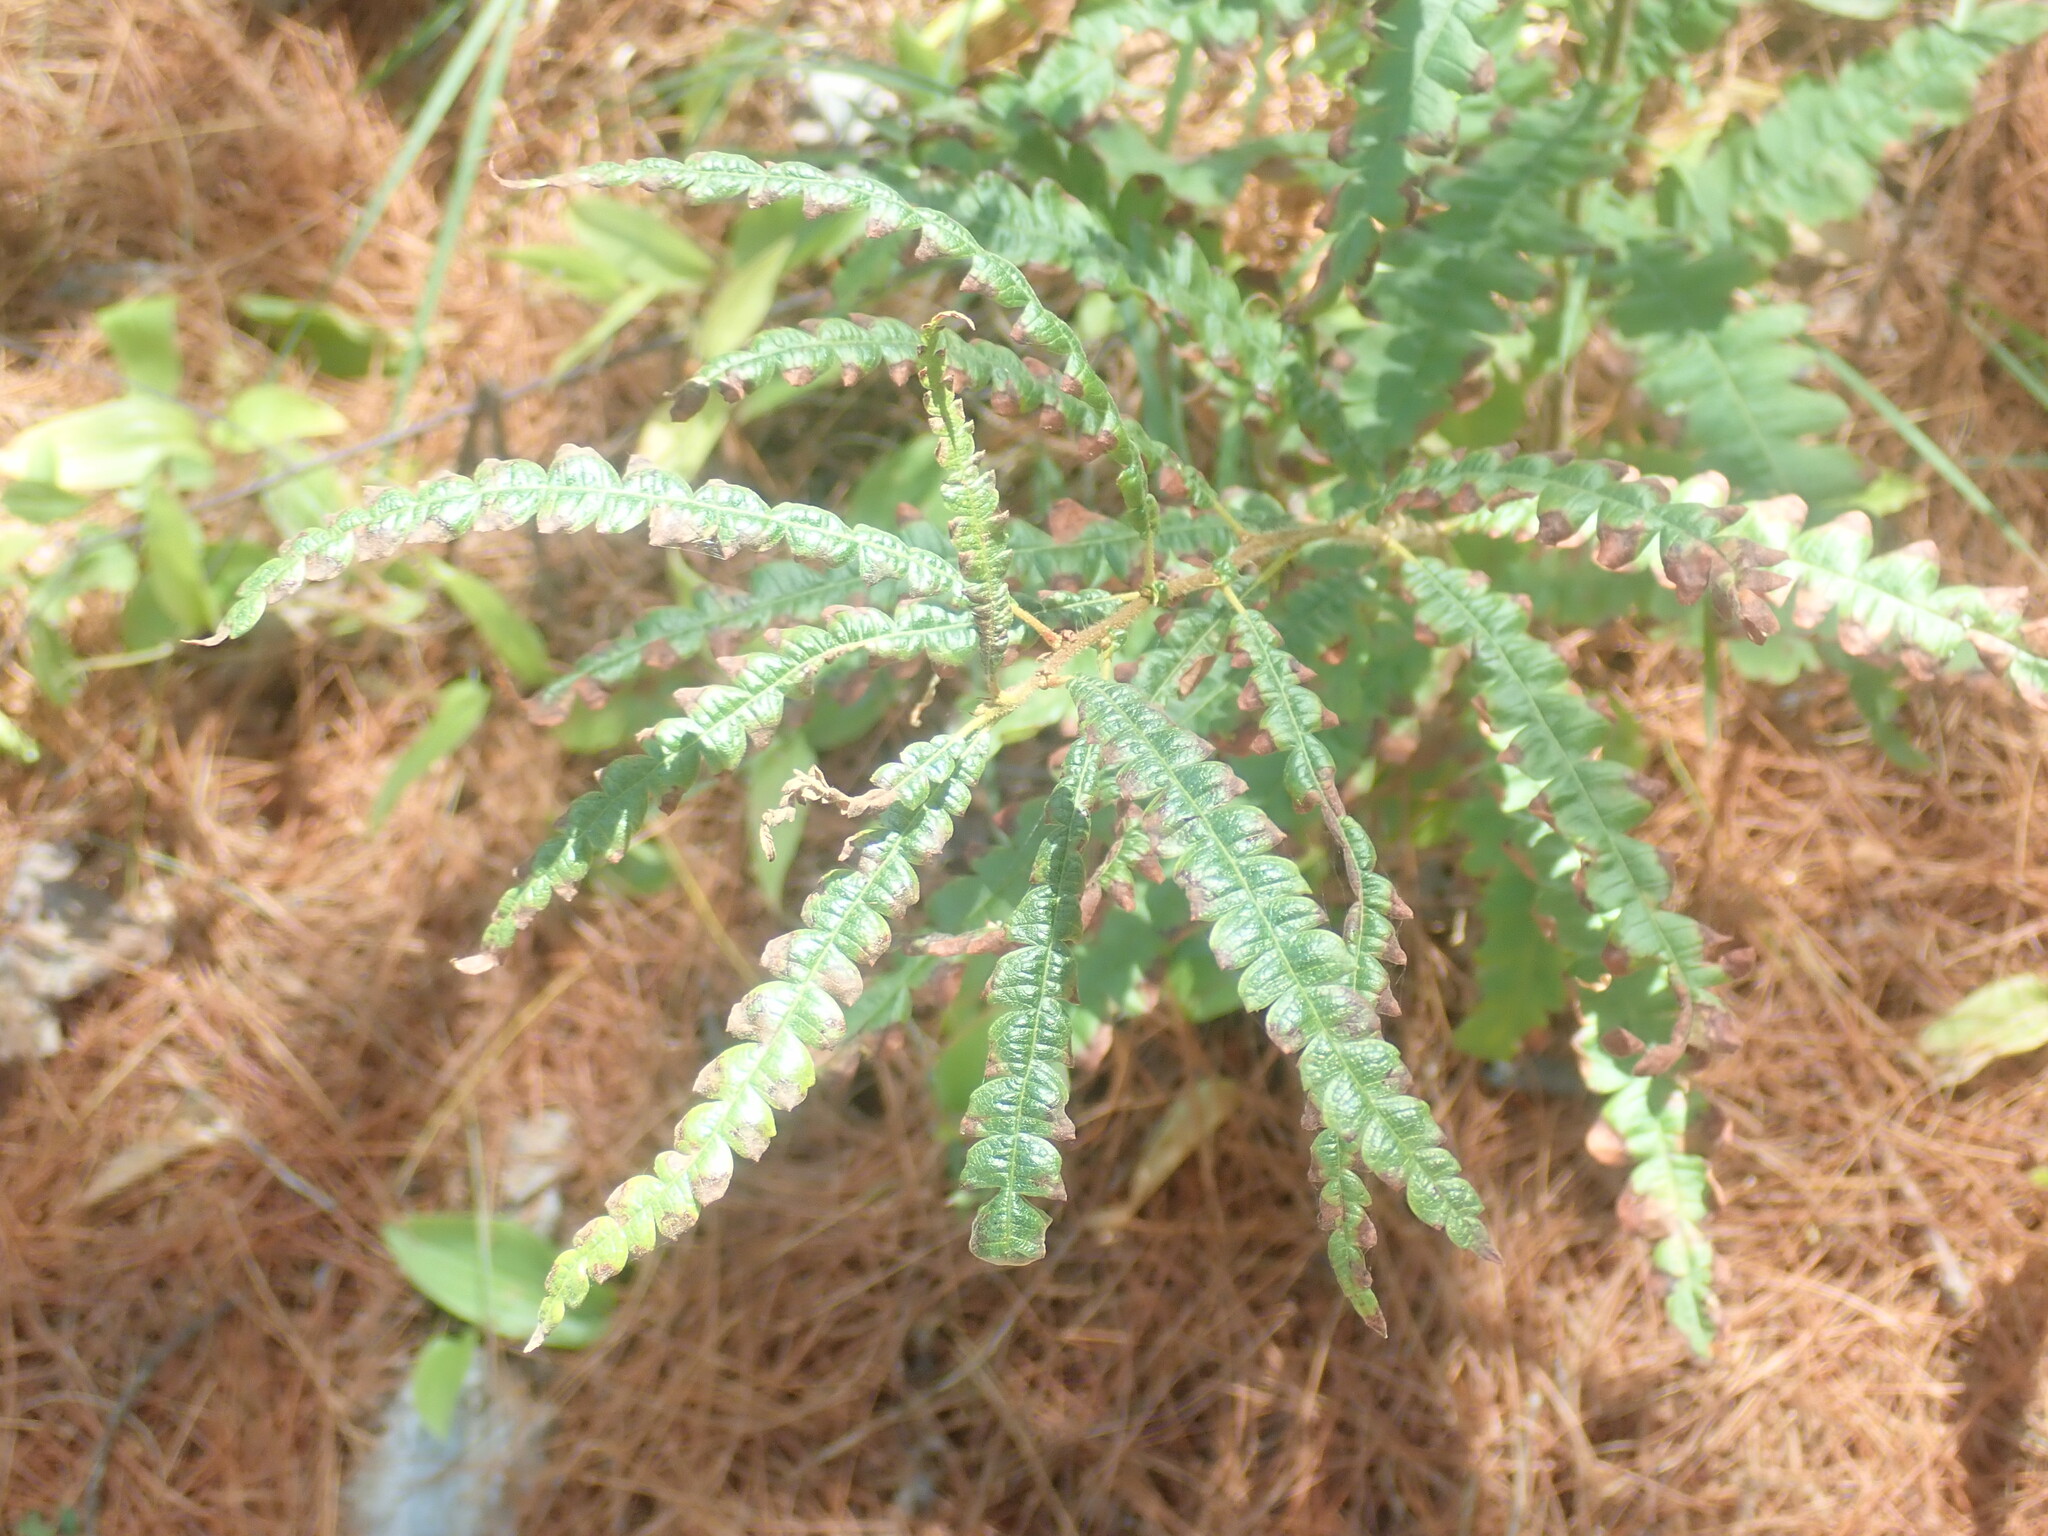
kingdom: Plantae
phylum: Tracheophyta
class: Magnoliopsida
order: Fagales
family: Myricaceae
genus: Comptonia
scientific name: Comptonia peregrina
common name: Sweet-fern
